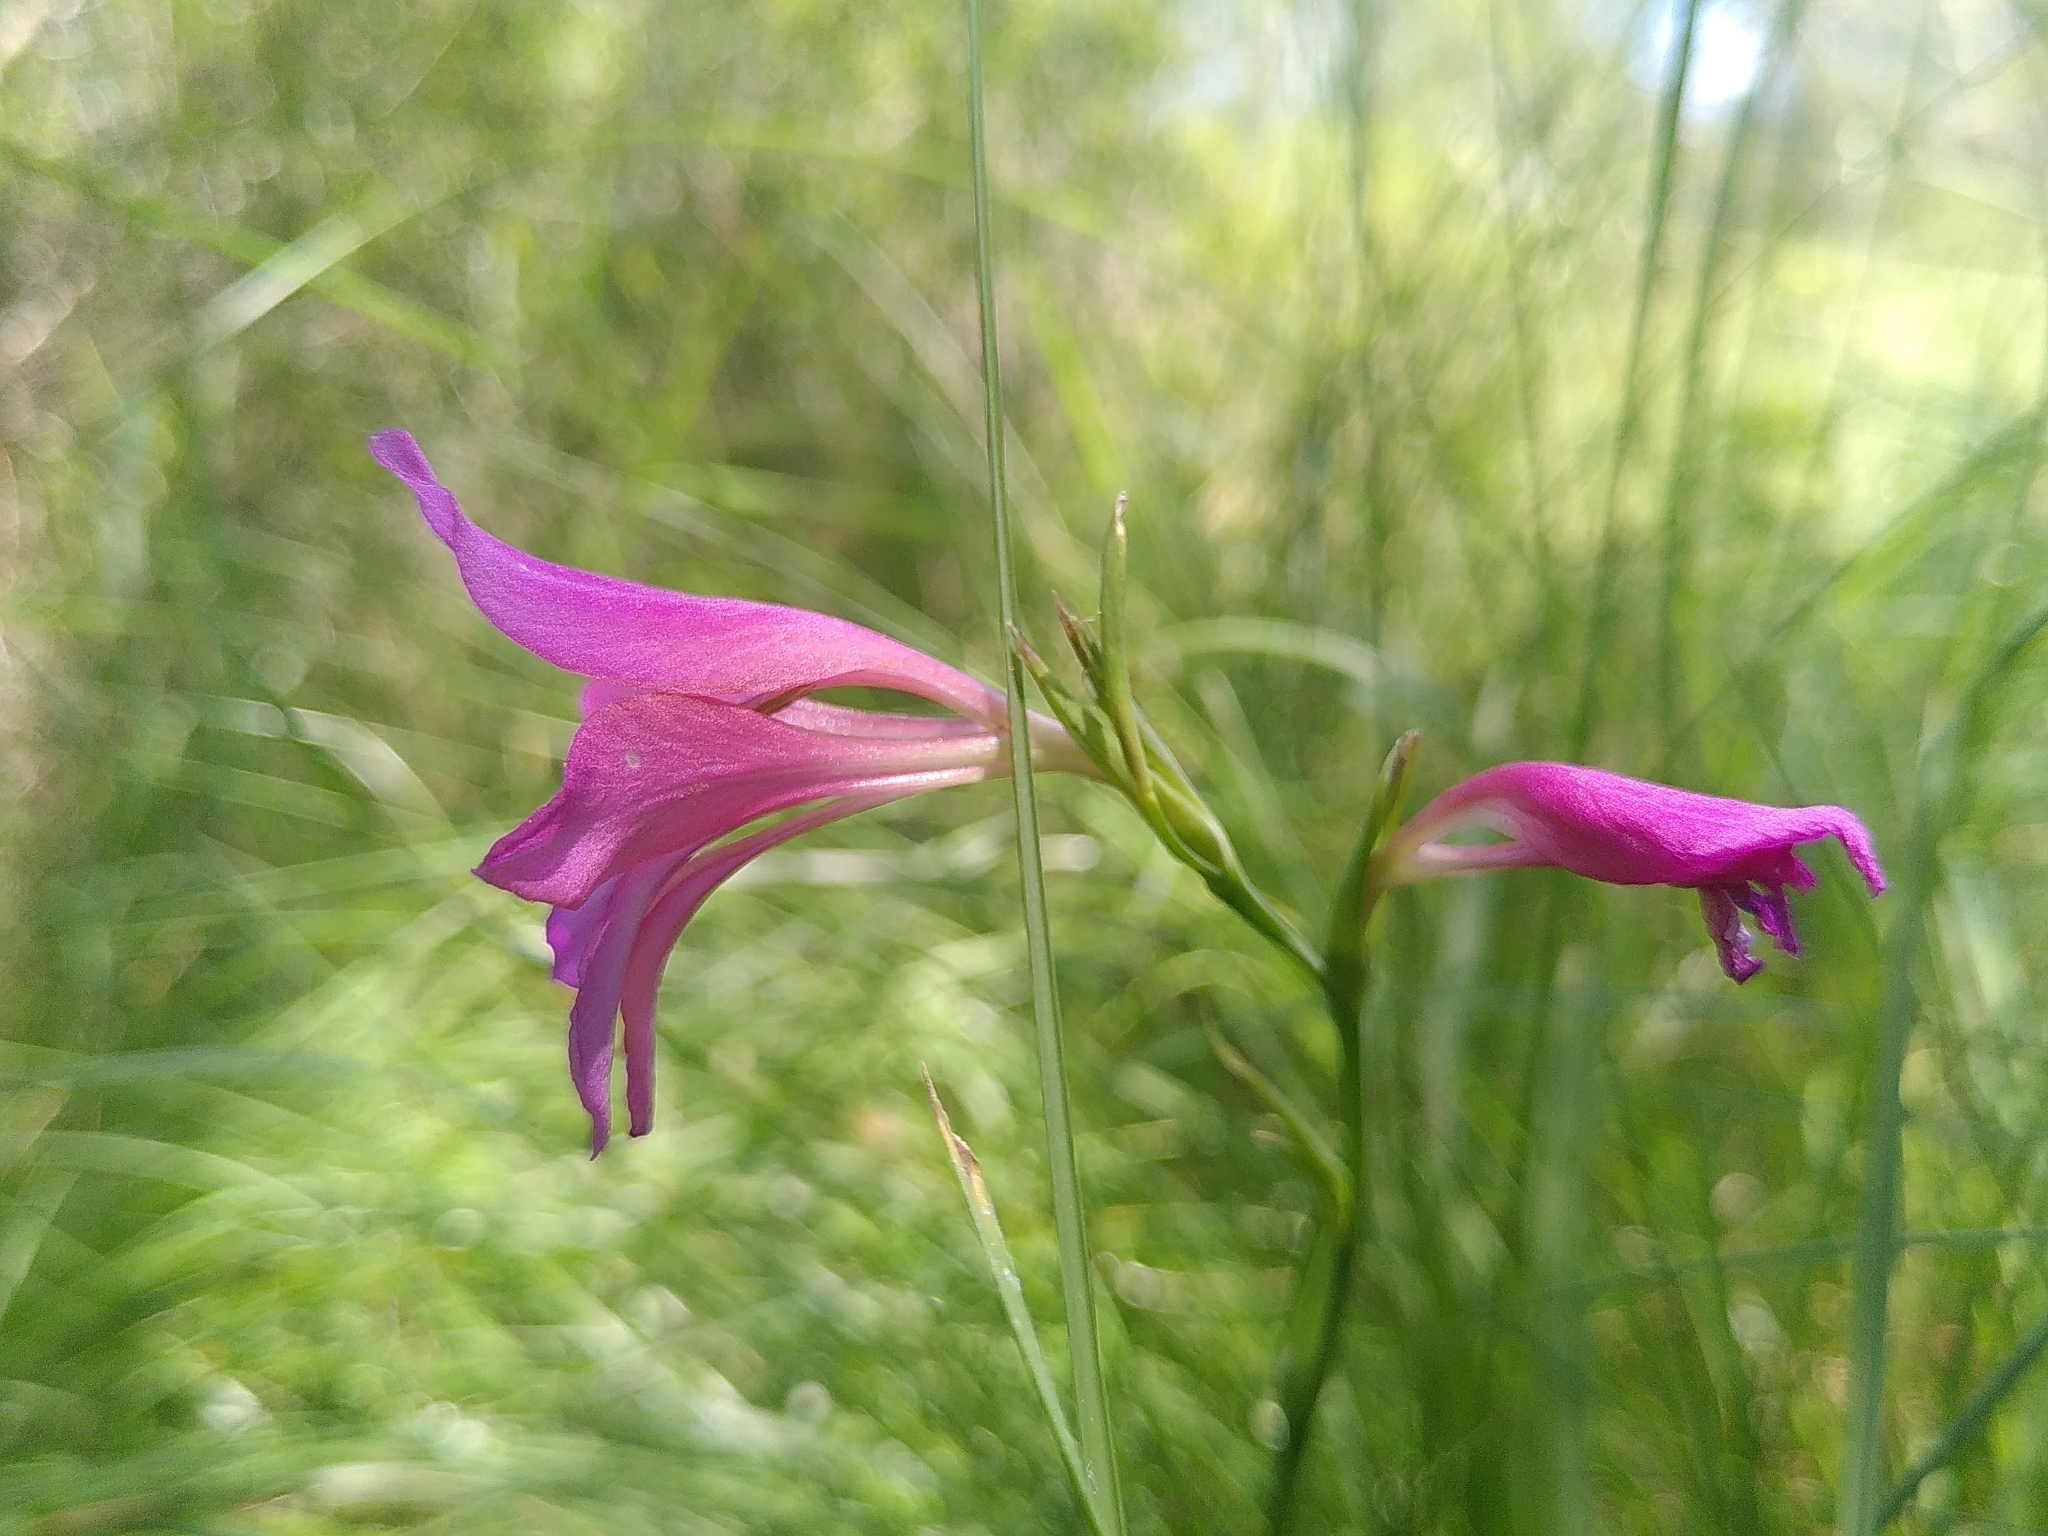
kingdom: Plantae
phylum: Tracheophyta
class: Liliopsida
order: Asparagales
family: Iridaceae
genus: Gladiolus
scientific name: Gladiolus dubius
